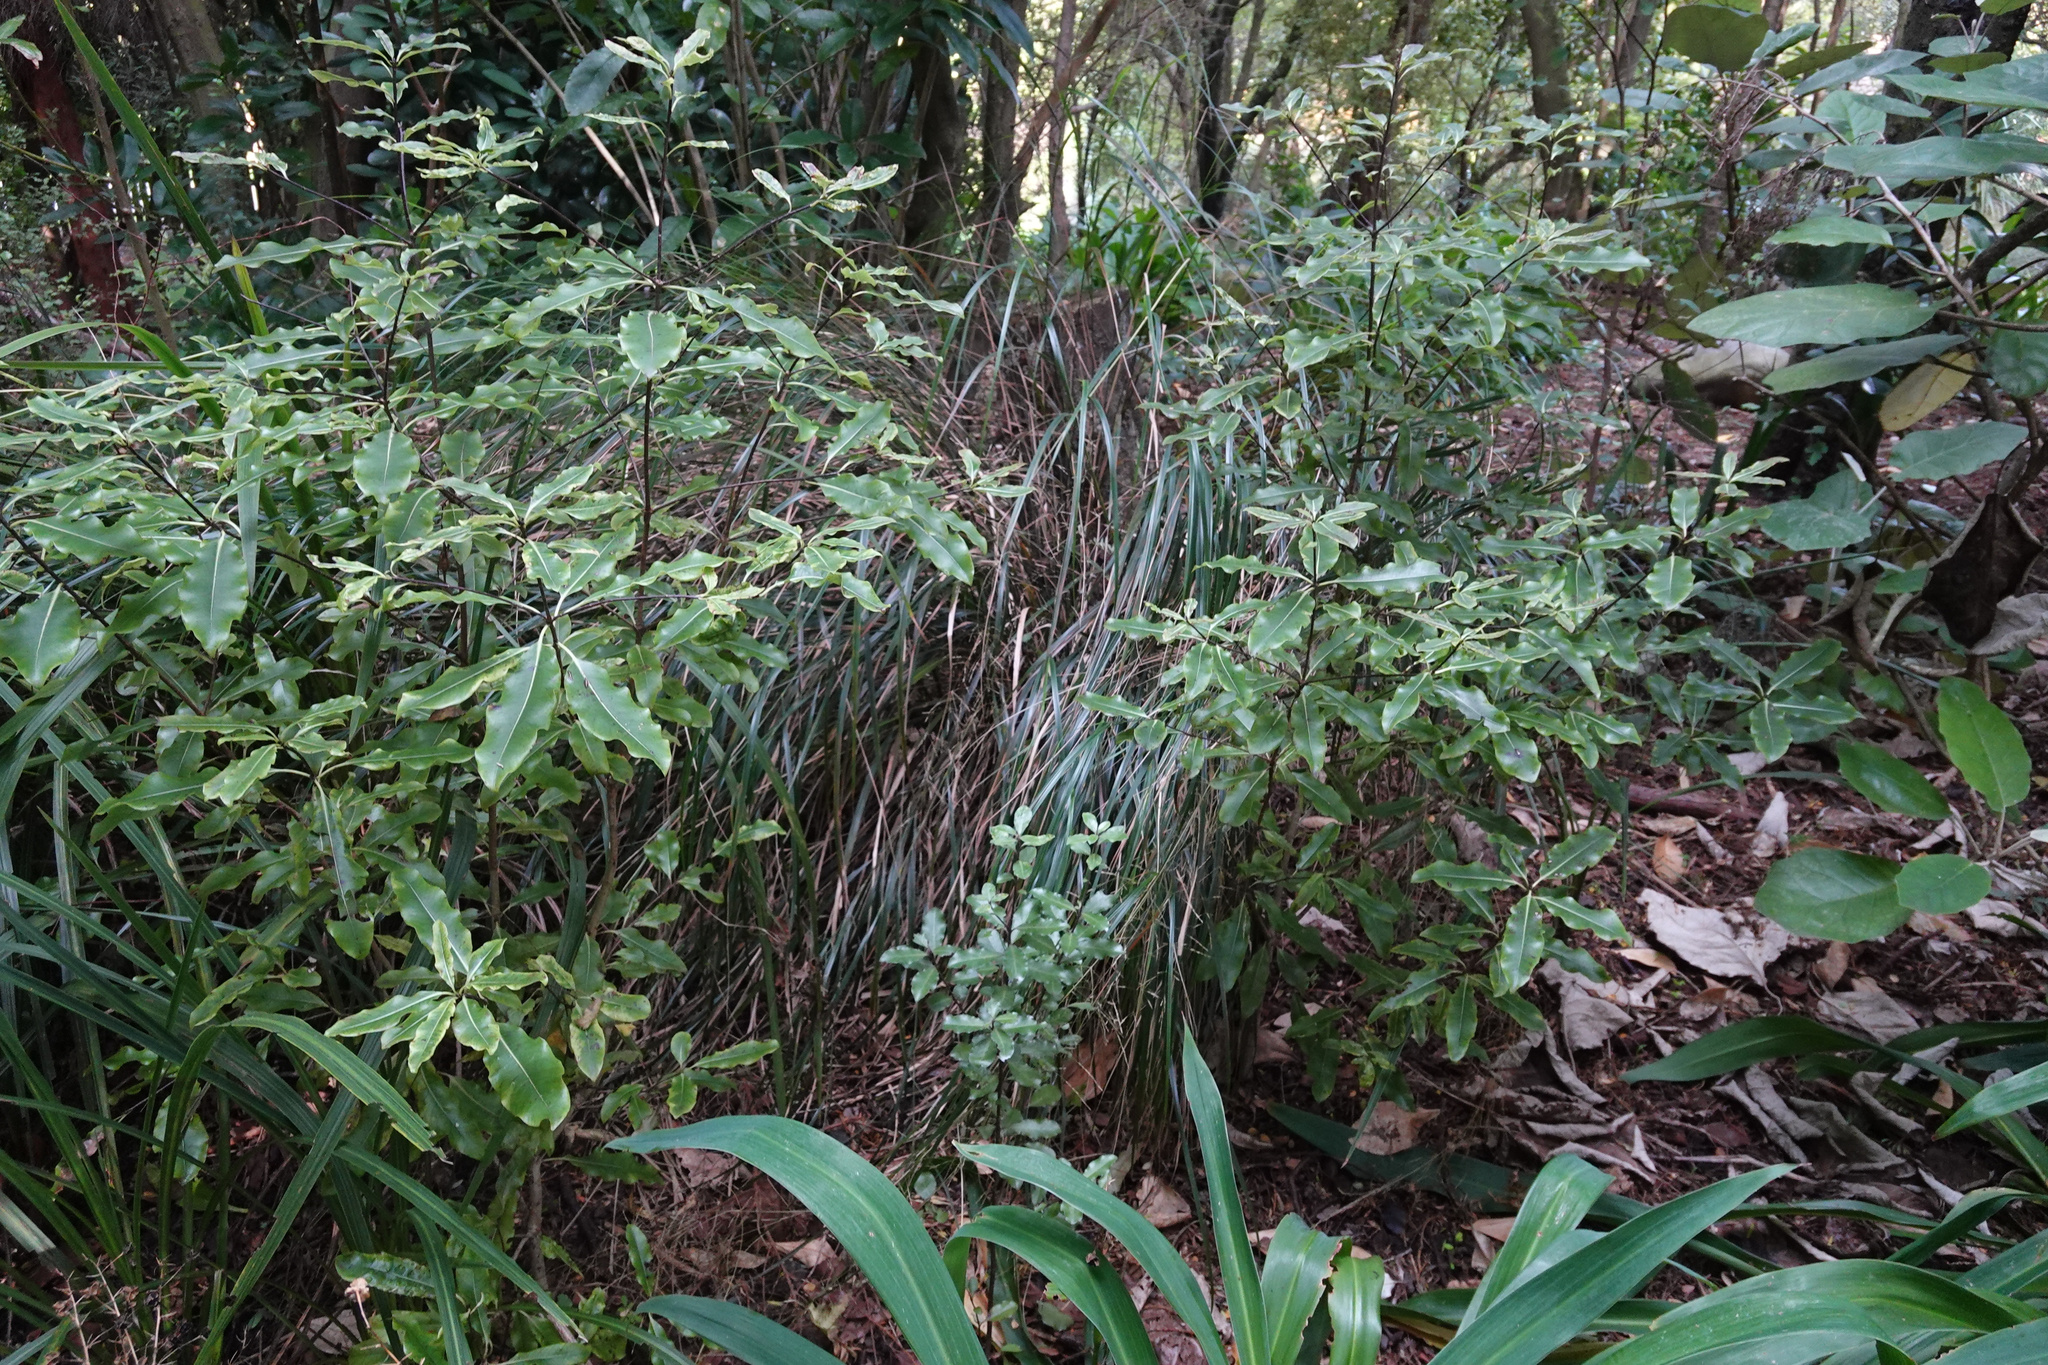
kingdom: Plantae
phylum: Tracheophyta
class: Magnoliopsida
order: Apiales
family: Pittosporaceae
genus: Pittosporum
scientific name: Pittosporum eugenioides
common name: Lemonwood
